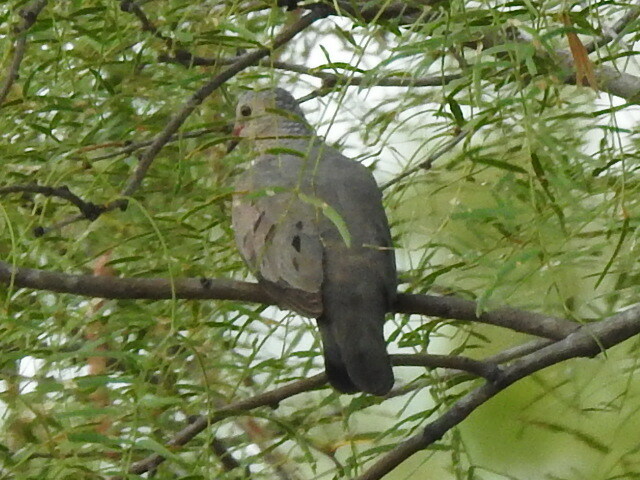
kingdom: Animalia
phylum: Chordata
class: Aves
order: Columbiformes
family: Columbidae
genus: Columbina
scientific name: Columbina passerina
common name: Common ground-dove
